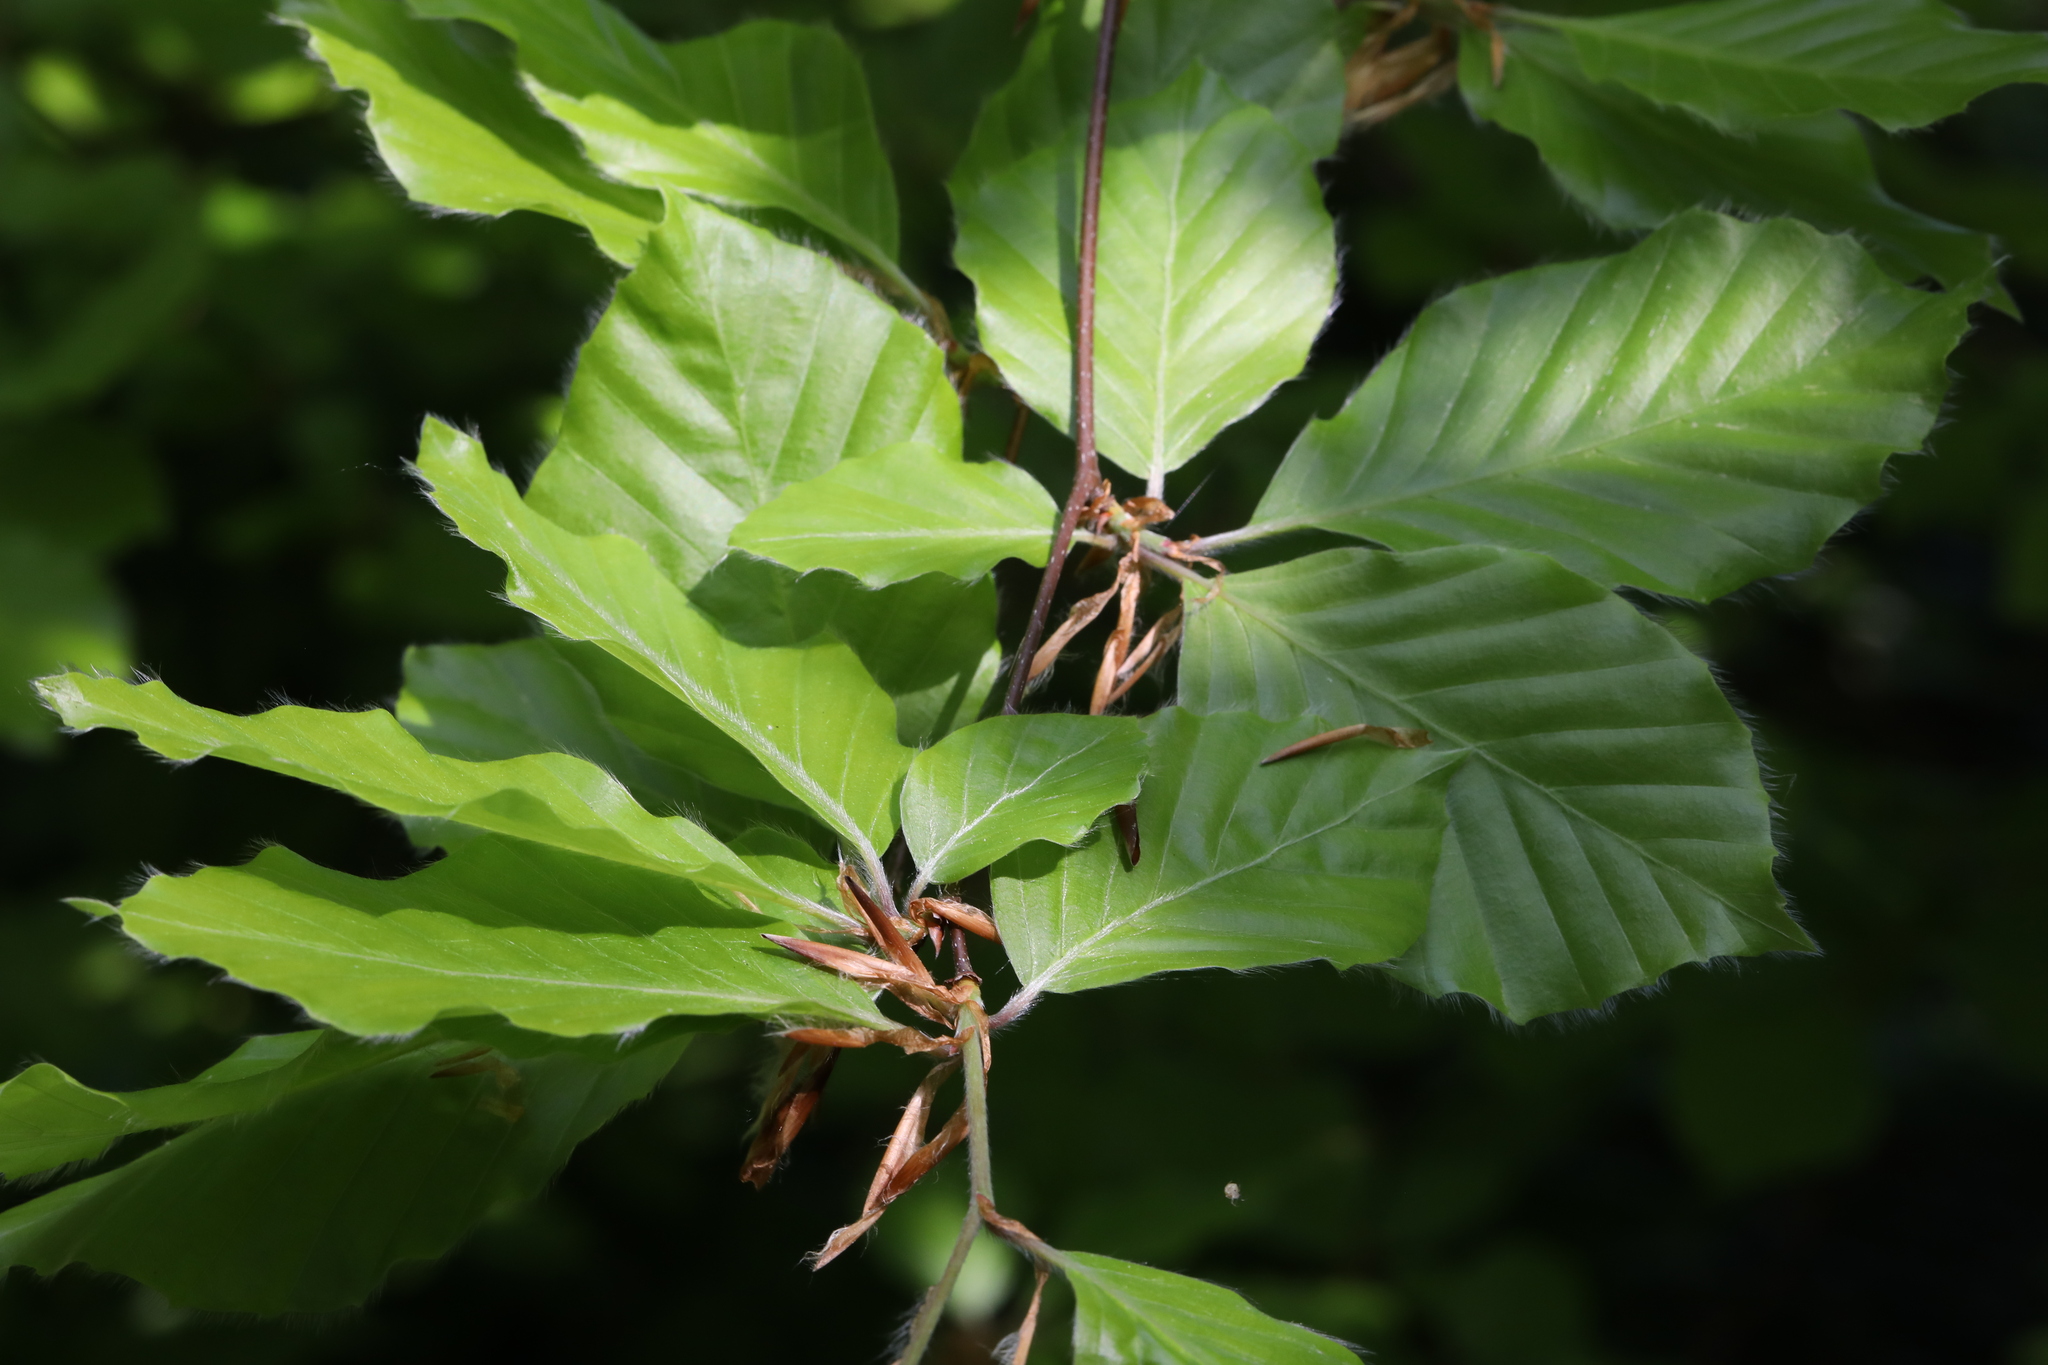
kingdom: Plantae
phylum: Tracheophyta
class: Magnoliopsida
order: Fagales
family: Fagaceae
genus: Fagus
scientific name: Fagus sylvatica
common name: Beech
